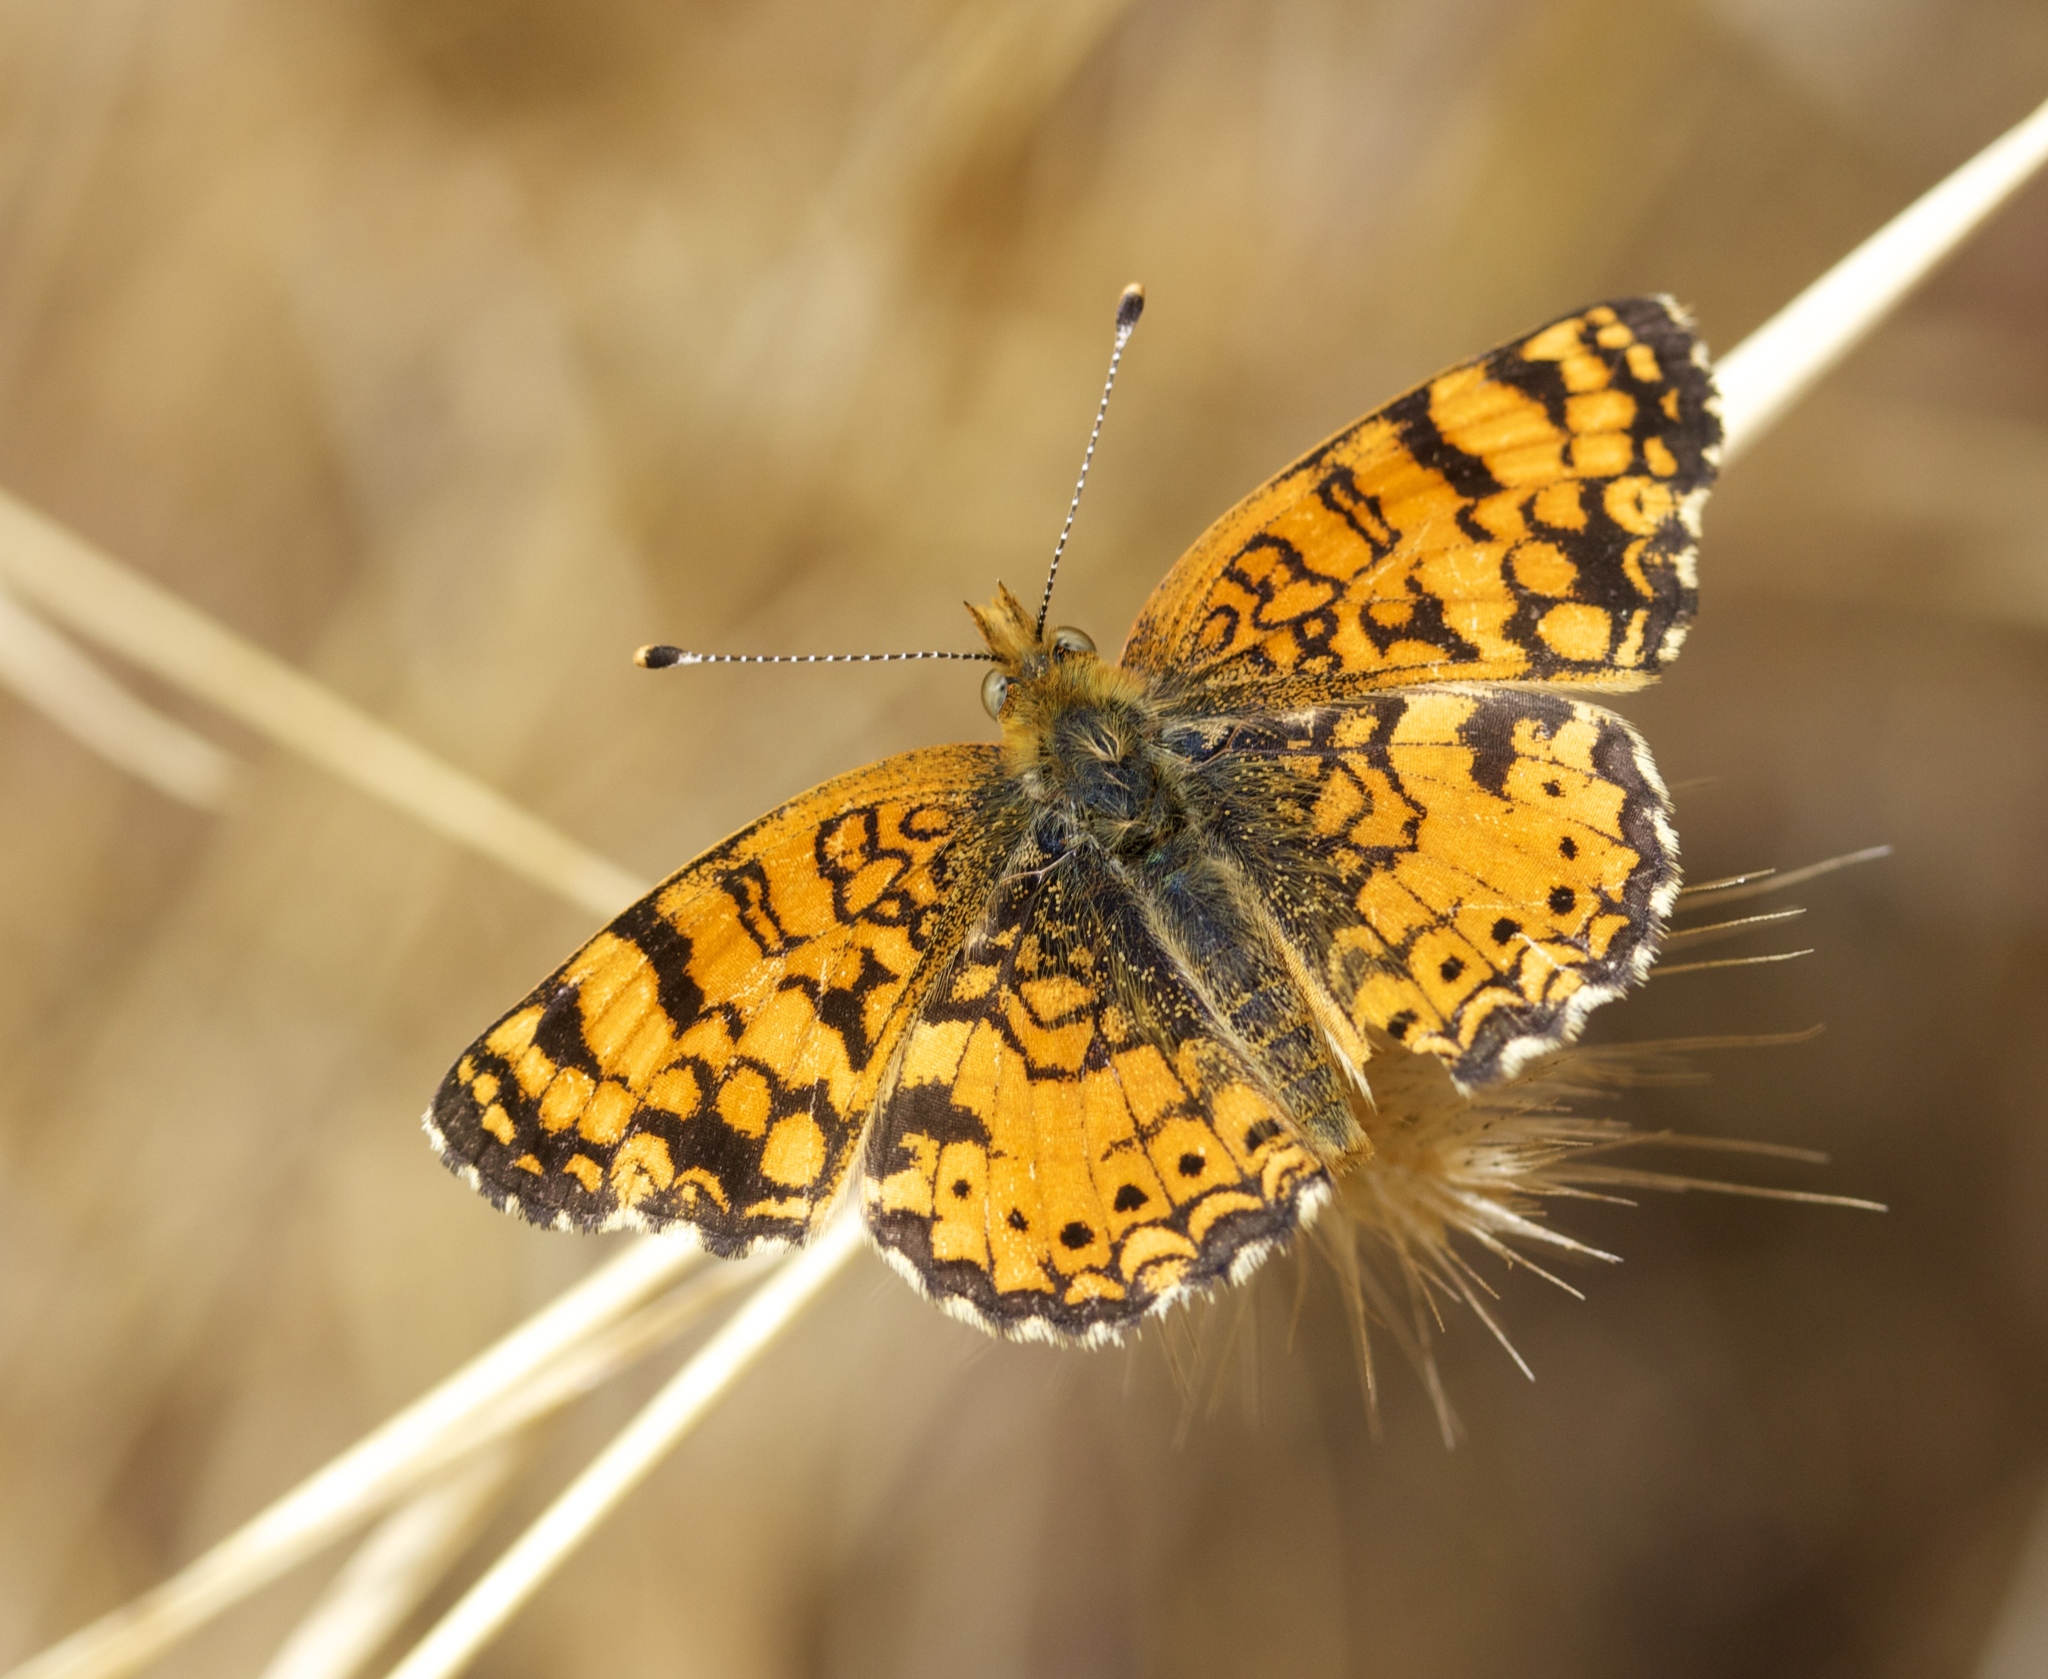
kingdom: Animalia
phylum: Arthropoda
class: Insecta
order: Lepidoptera
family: Nymphalidae
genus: Eresia
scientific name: Eresia aveyrona
